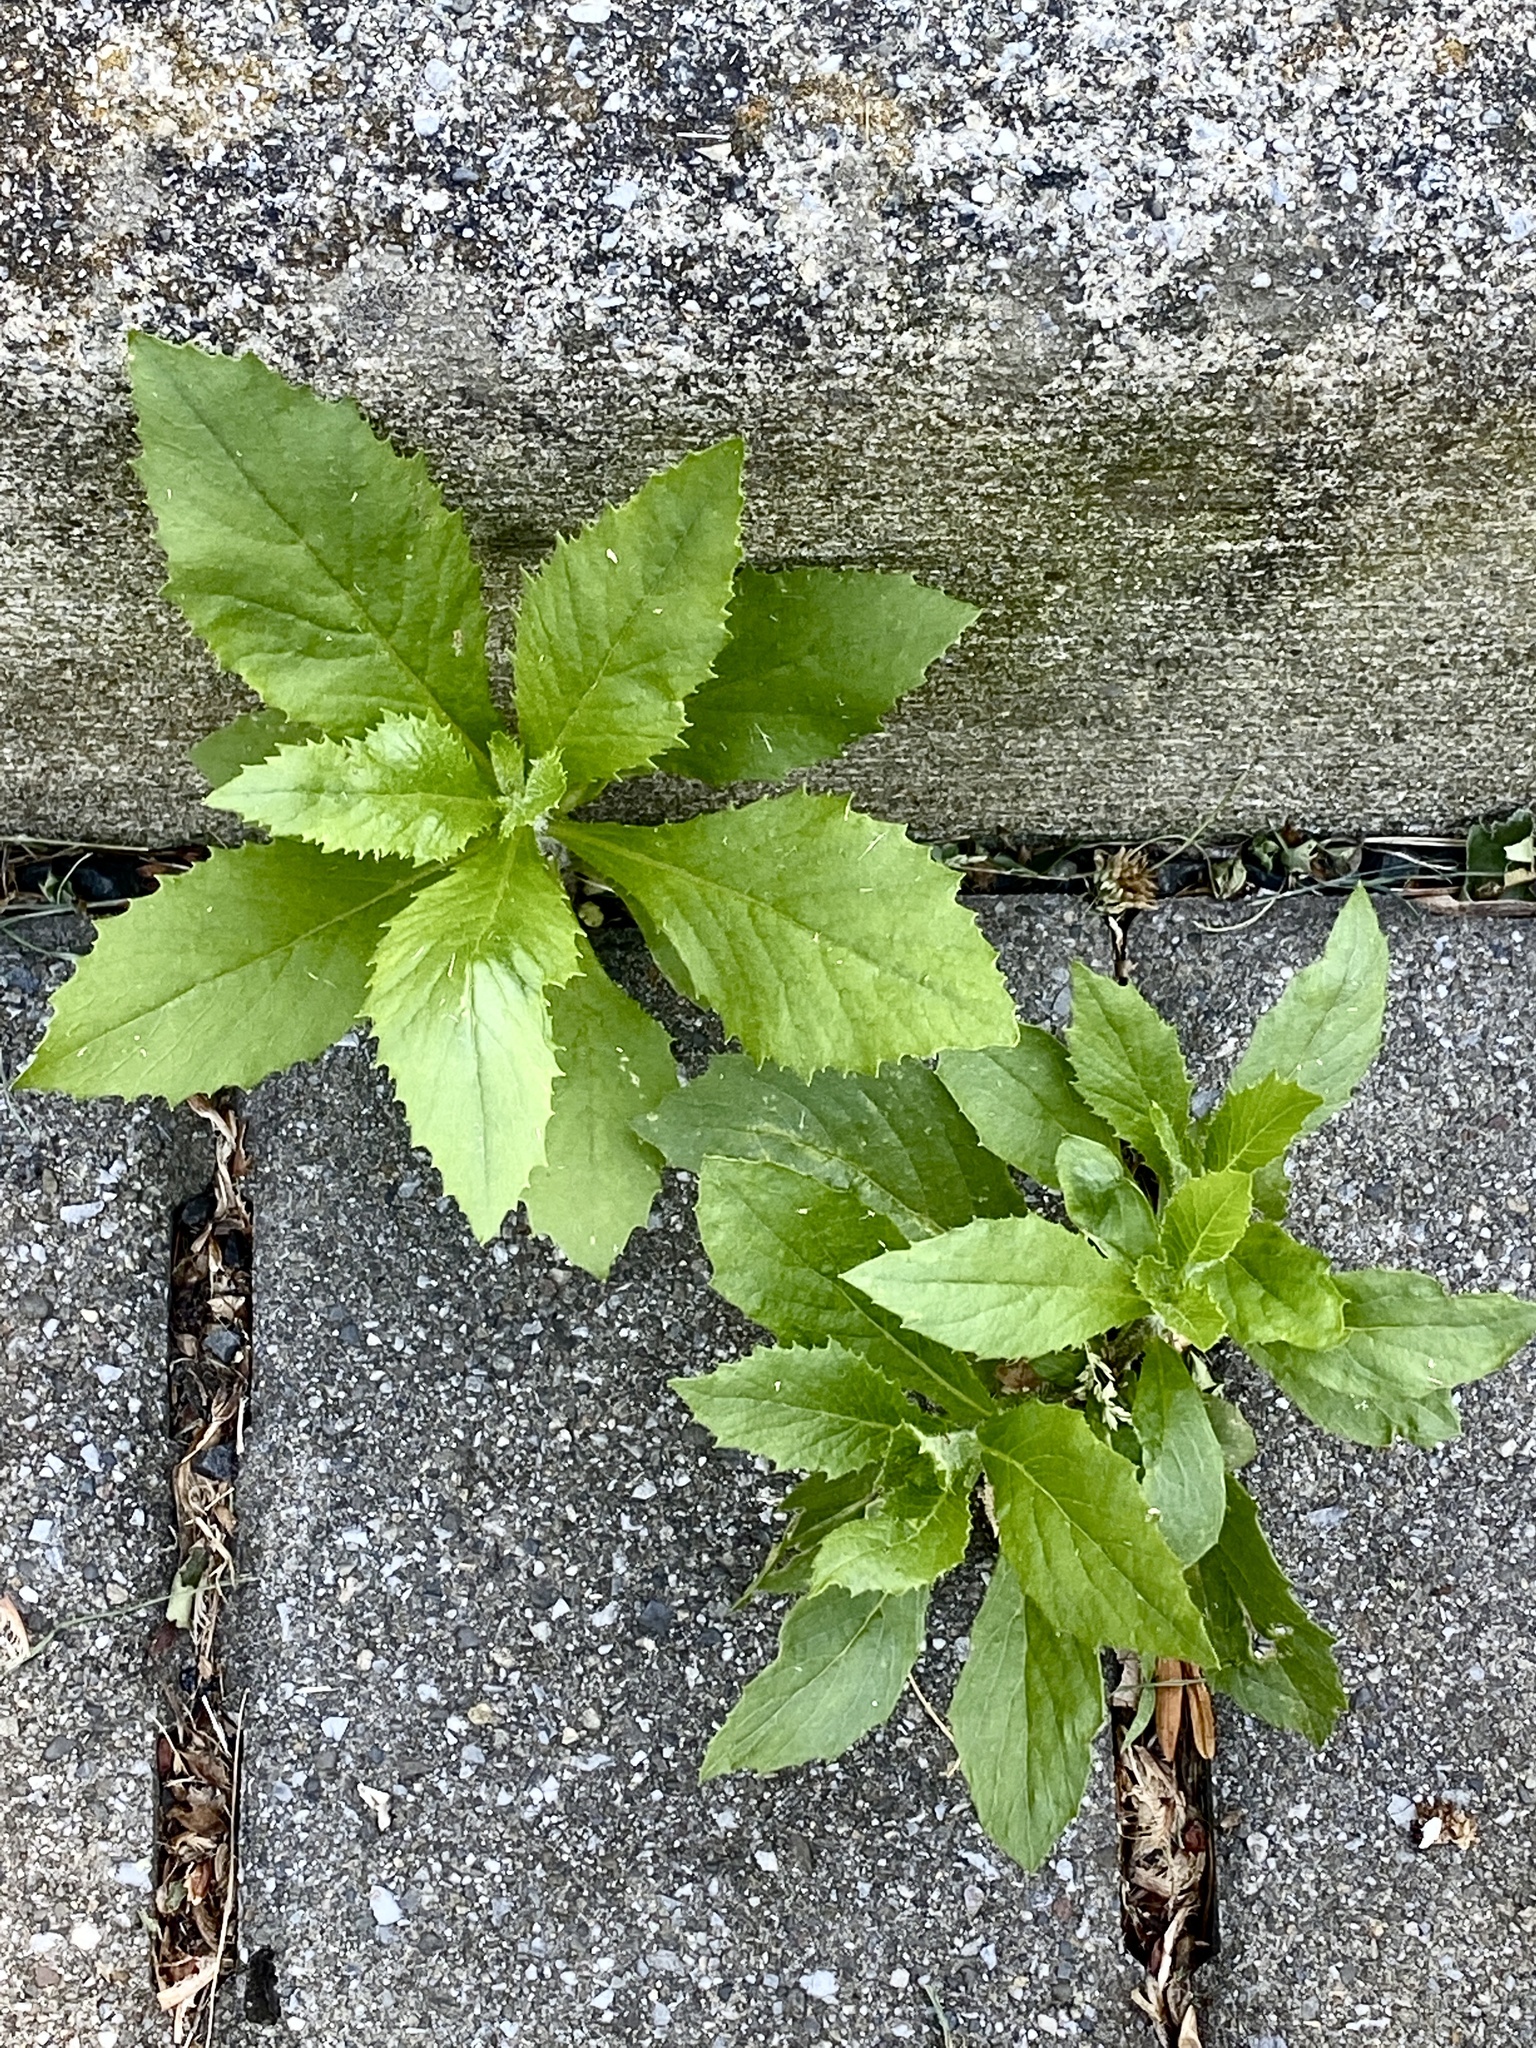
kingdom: Plantae
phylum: Tracheophyta
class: Magnoliopsida
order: Asterales
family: Asteraceae
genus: Erechtites
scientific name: Erechtites hieraciifolius
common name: American burnweed
